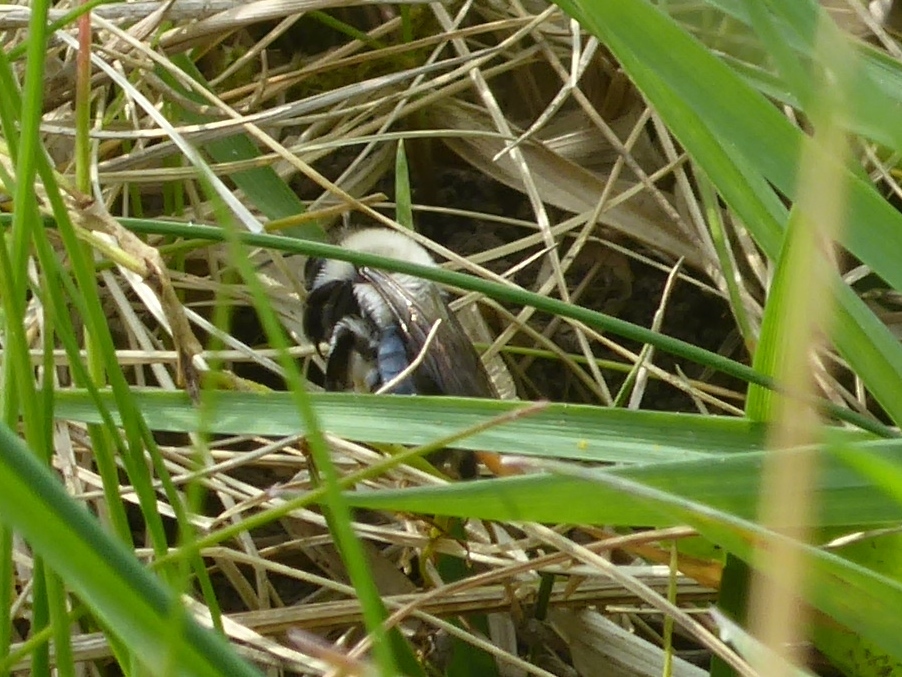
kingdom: Animalia
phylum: Arthropoda
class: Insecta
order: Hymenoptera
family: Andrenidae
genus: Andrena
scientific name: Andrena vaga
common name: Grey-backed mining bee
